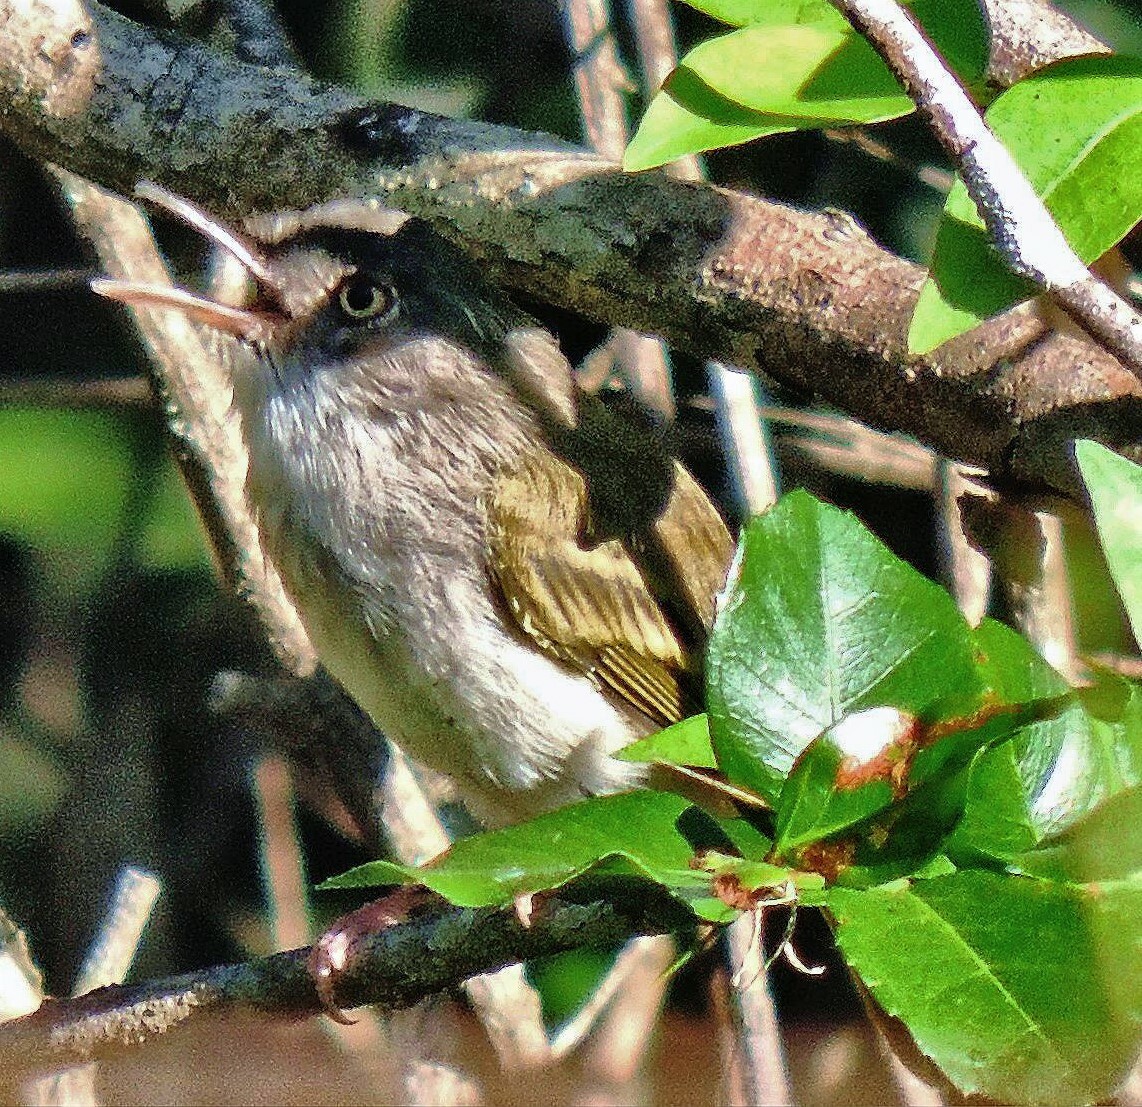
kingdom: Animalia
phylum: Chordata
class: Aves
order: Passeriformes
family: Tyrannidae
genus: Hemitriccus
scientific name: Hemitriccus margaritaceiventer
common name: Pearly-vented tody-tyrant
